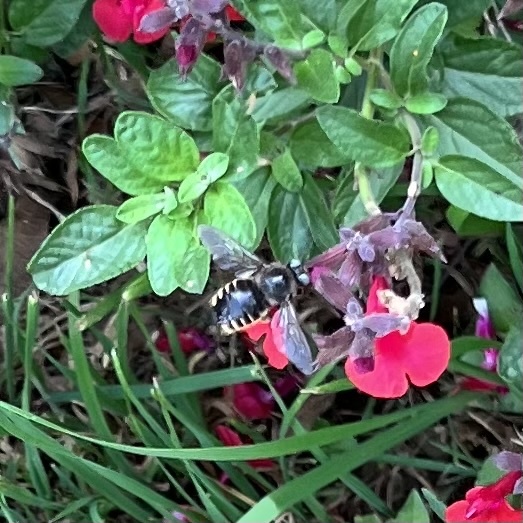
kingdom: Animalia
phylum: Arthropoda
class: Insecta
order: Hymenoptera
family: Apidae
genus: Xylocopa
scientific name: Xylocopa tabaniformis
